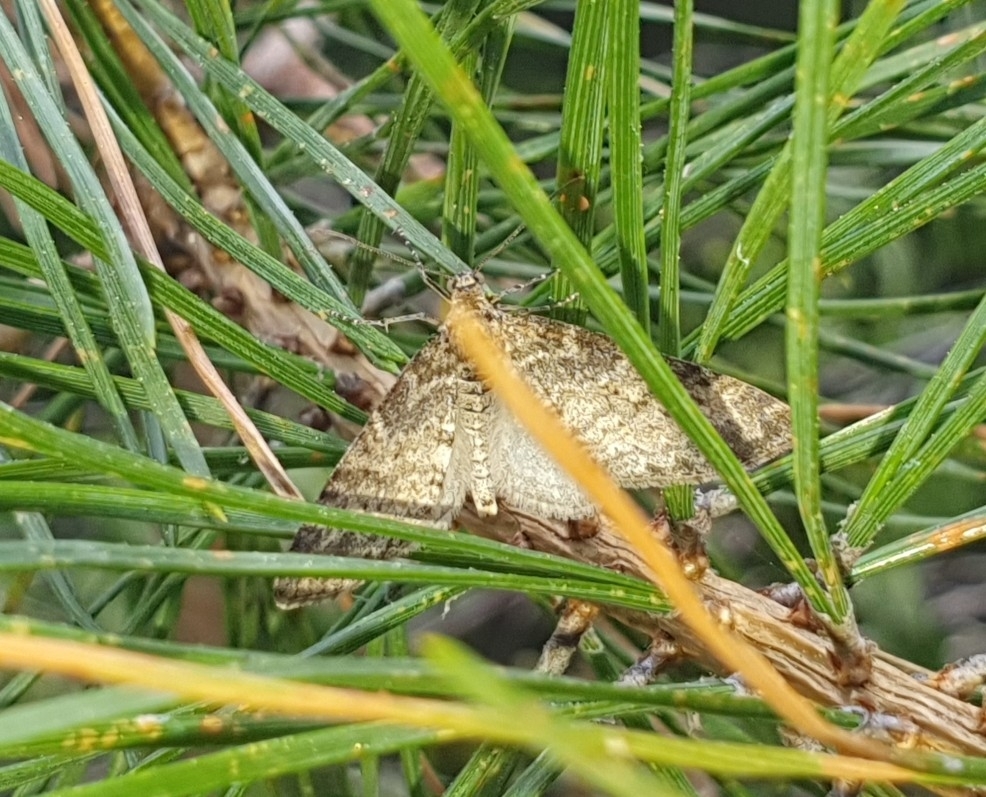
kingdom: Animalia
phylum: Arthropoda
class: Insecta
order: Lepidoptera
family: Geometridae
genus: Lobophora
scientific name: Lobophora halterata
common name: Seraphim
